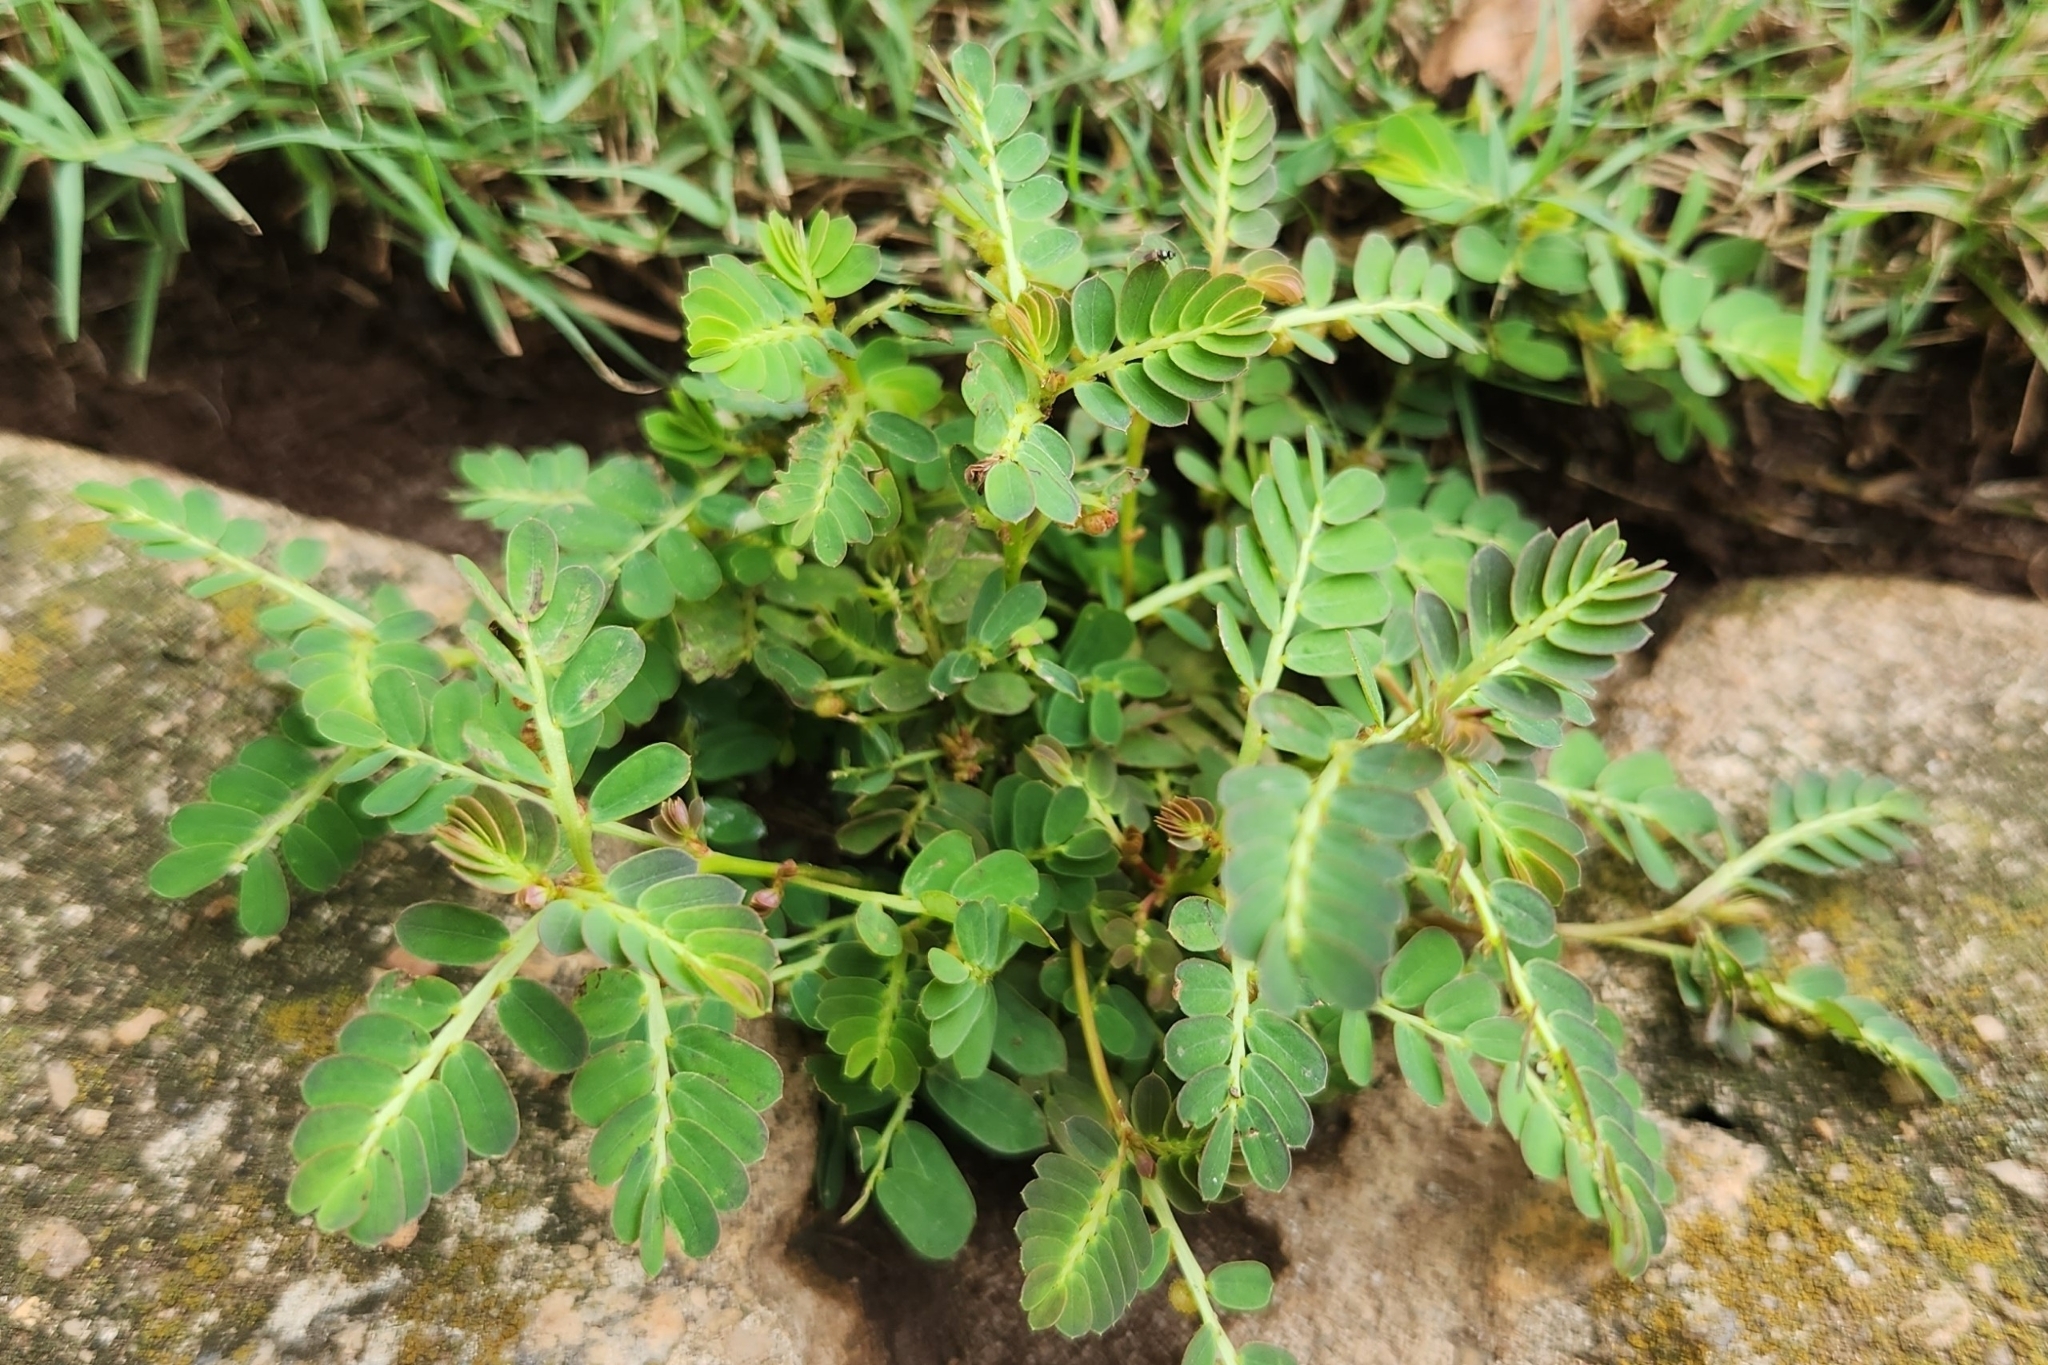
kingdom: Plantae
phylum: Tracheophyta
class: Magnoliopsida
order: Malpighiales
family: Phyllanthaceae
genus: Phyllanthus
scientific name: Phyllanthus urinaria
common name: Chamber bitter
